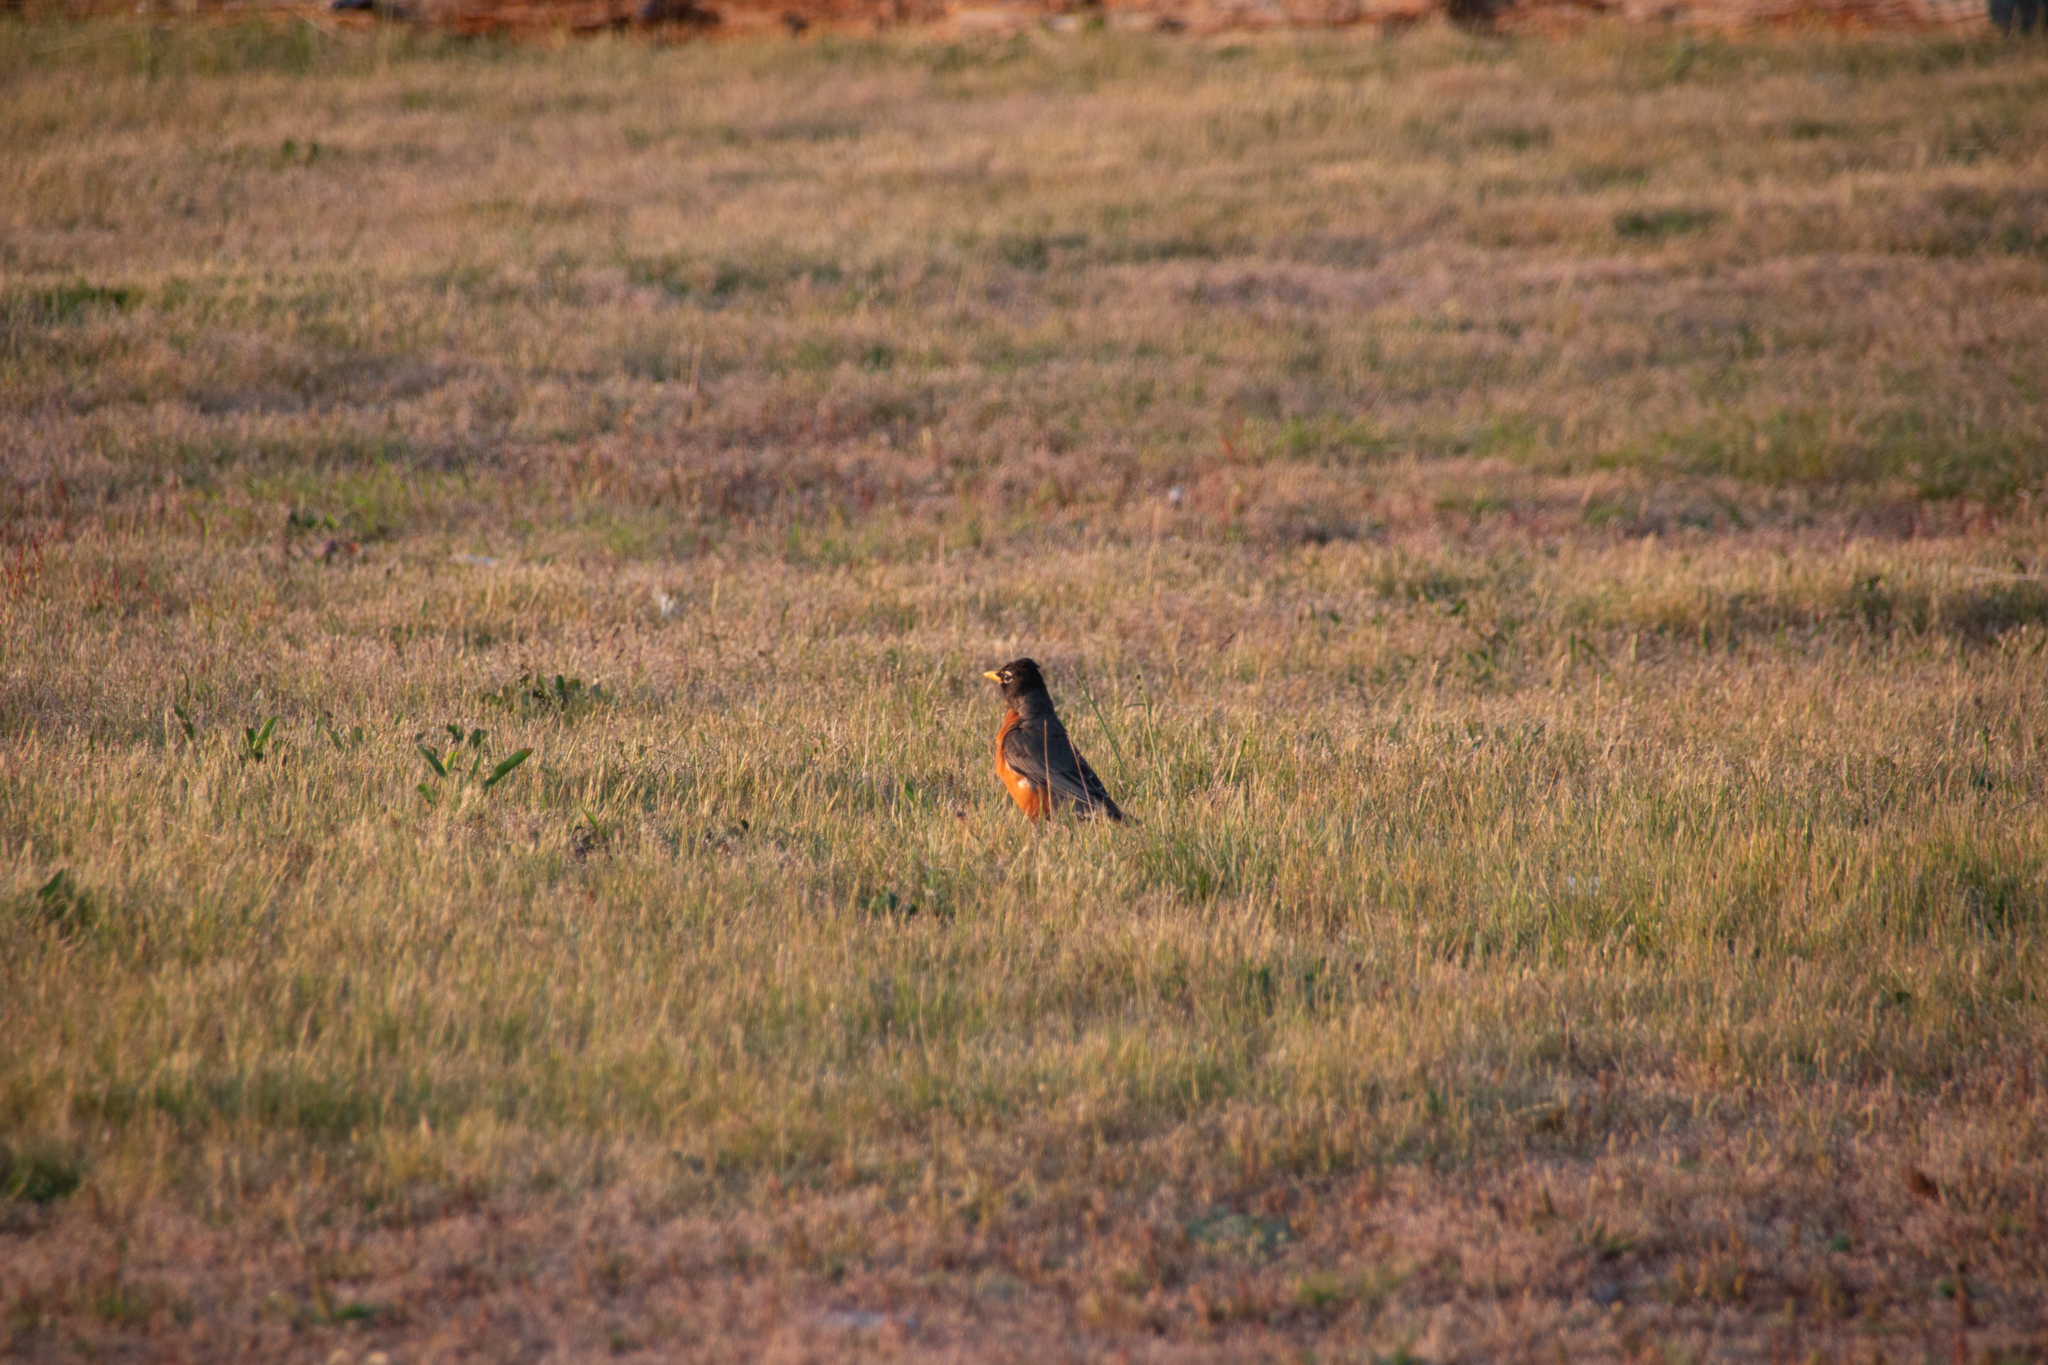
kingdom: Animalia
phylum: Chordata
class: Aves
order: Passeriformes
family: Turdidae
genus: Turdus
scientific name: Turdus migratorius
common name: American robin
